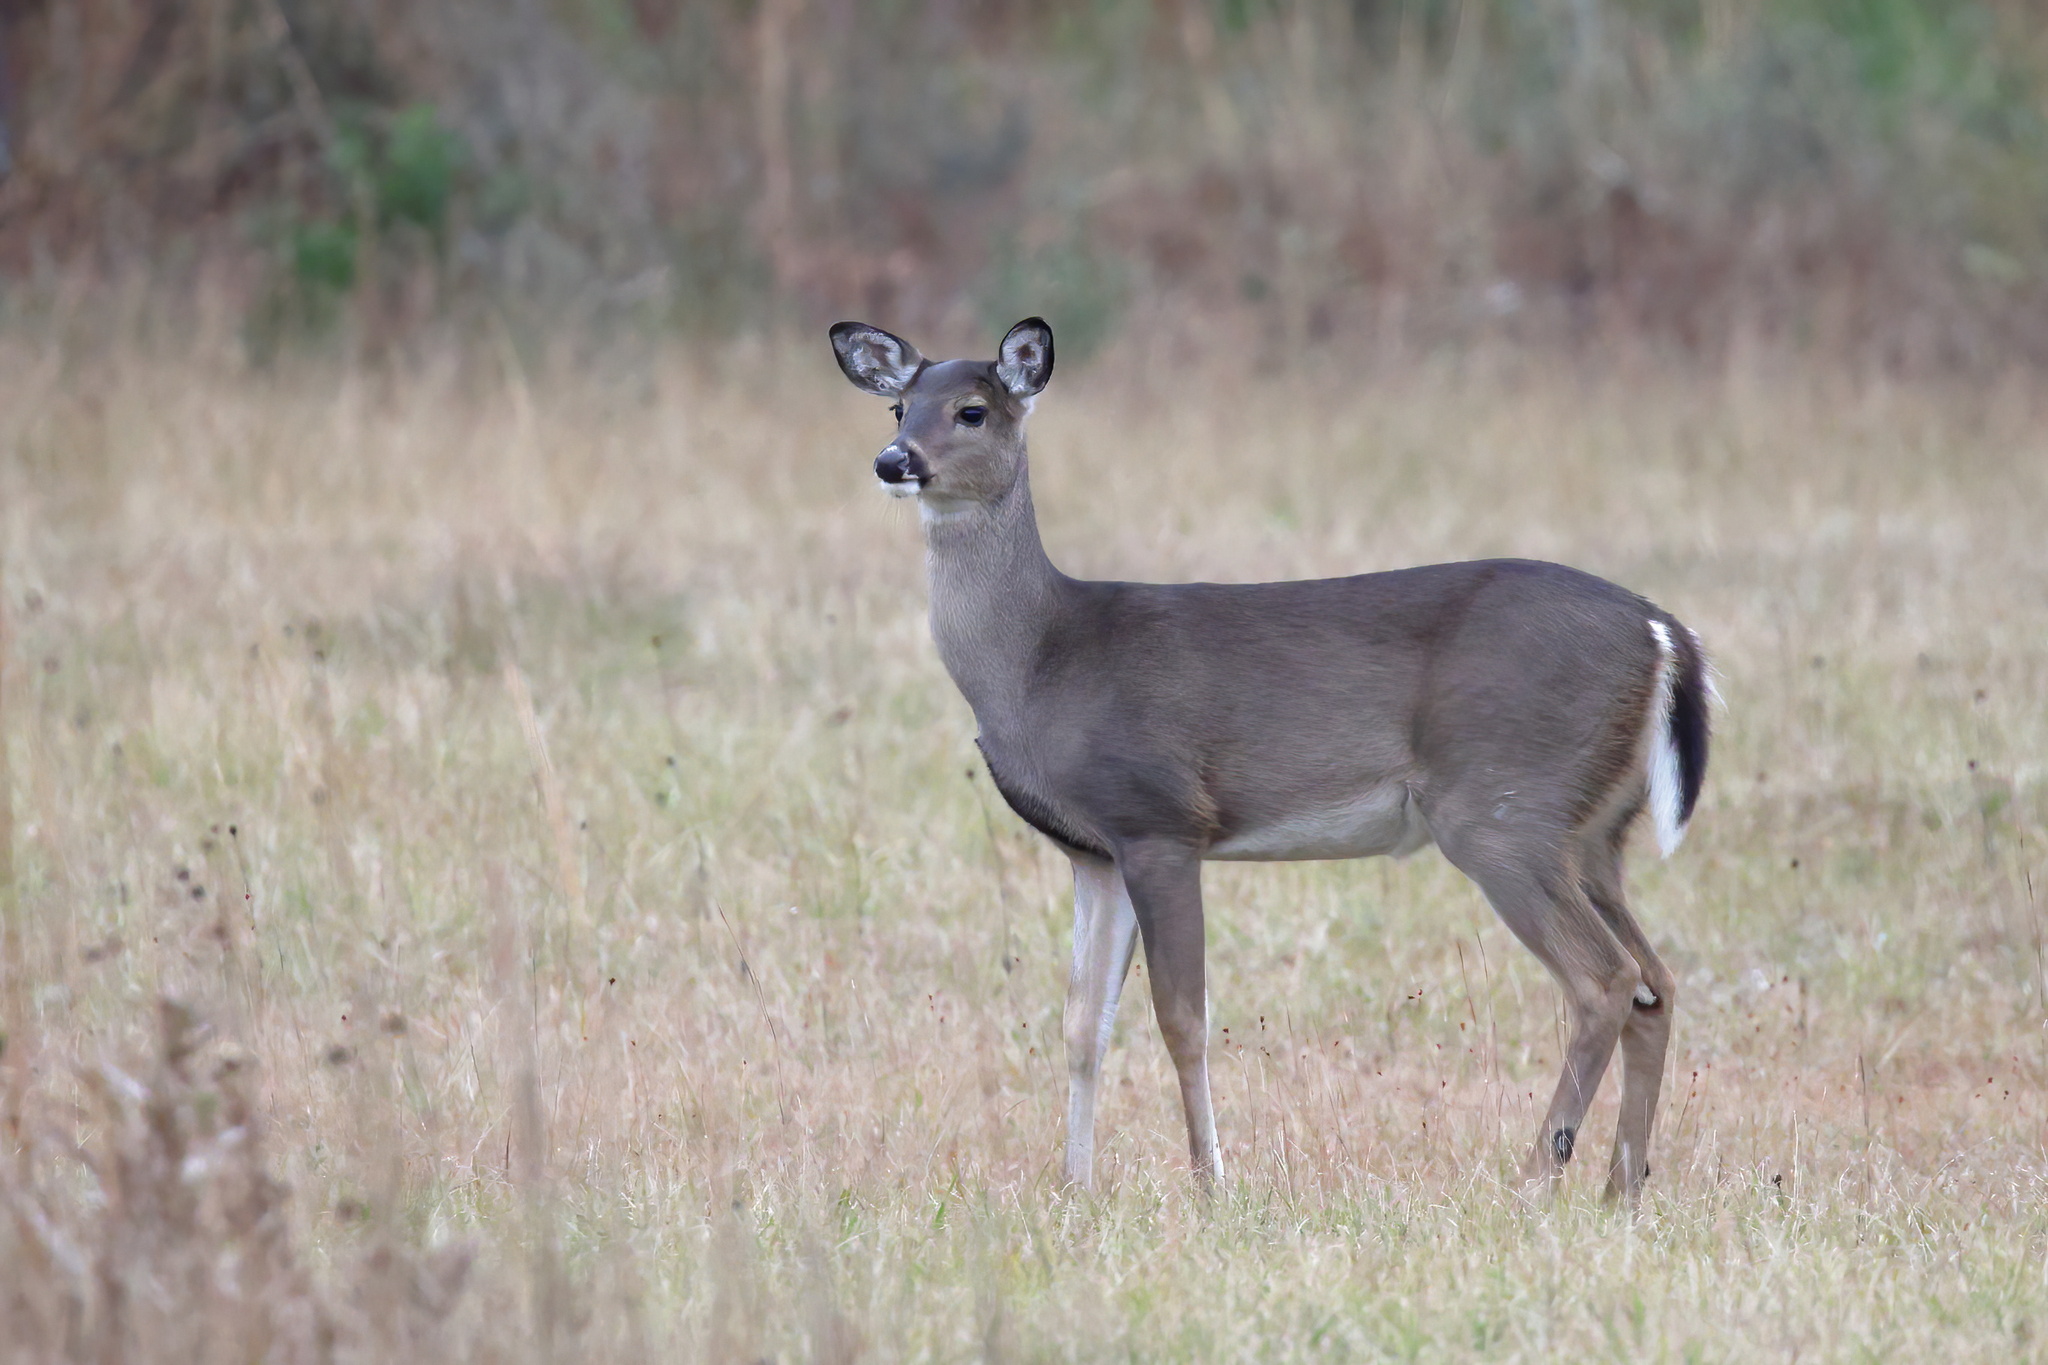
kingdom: Animalia
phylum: Chordata
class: Mammalia
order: Artiodactyla
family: Cervidae
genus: Odocoileus
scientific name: Odocoileus virginianus
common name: White-tailed deer
